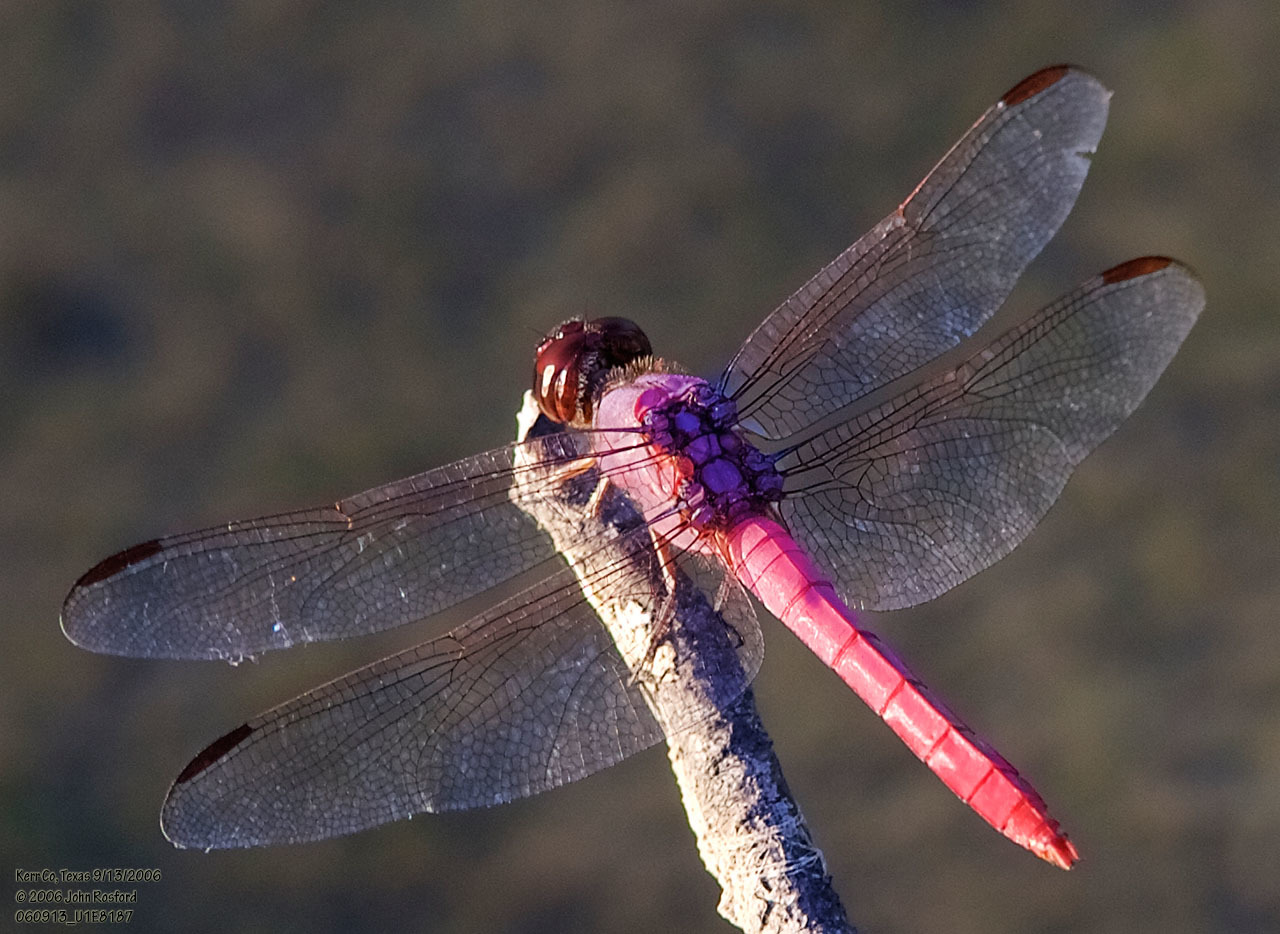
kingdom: Animalia
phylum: Arthropoda
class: Insecta
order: Odonata
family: Libellulidae
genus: Orthemis
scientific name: Orthemis ferruginea
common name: Roseate skimmer
